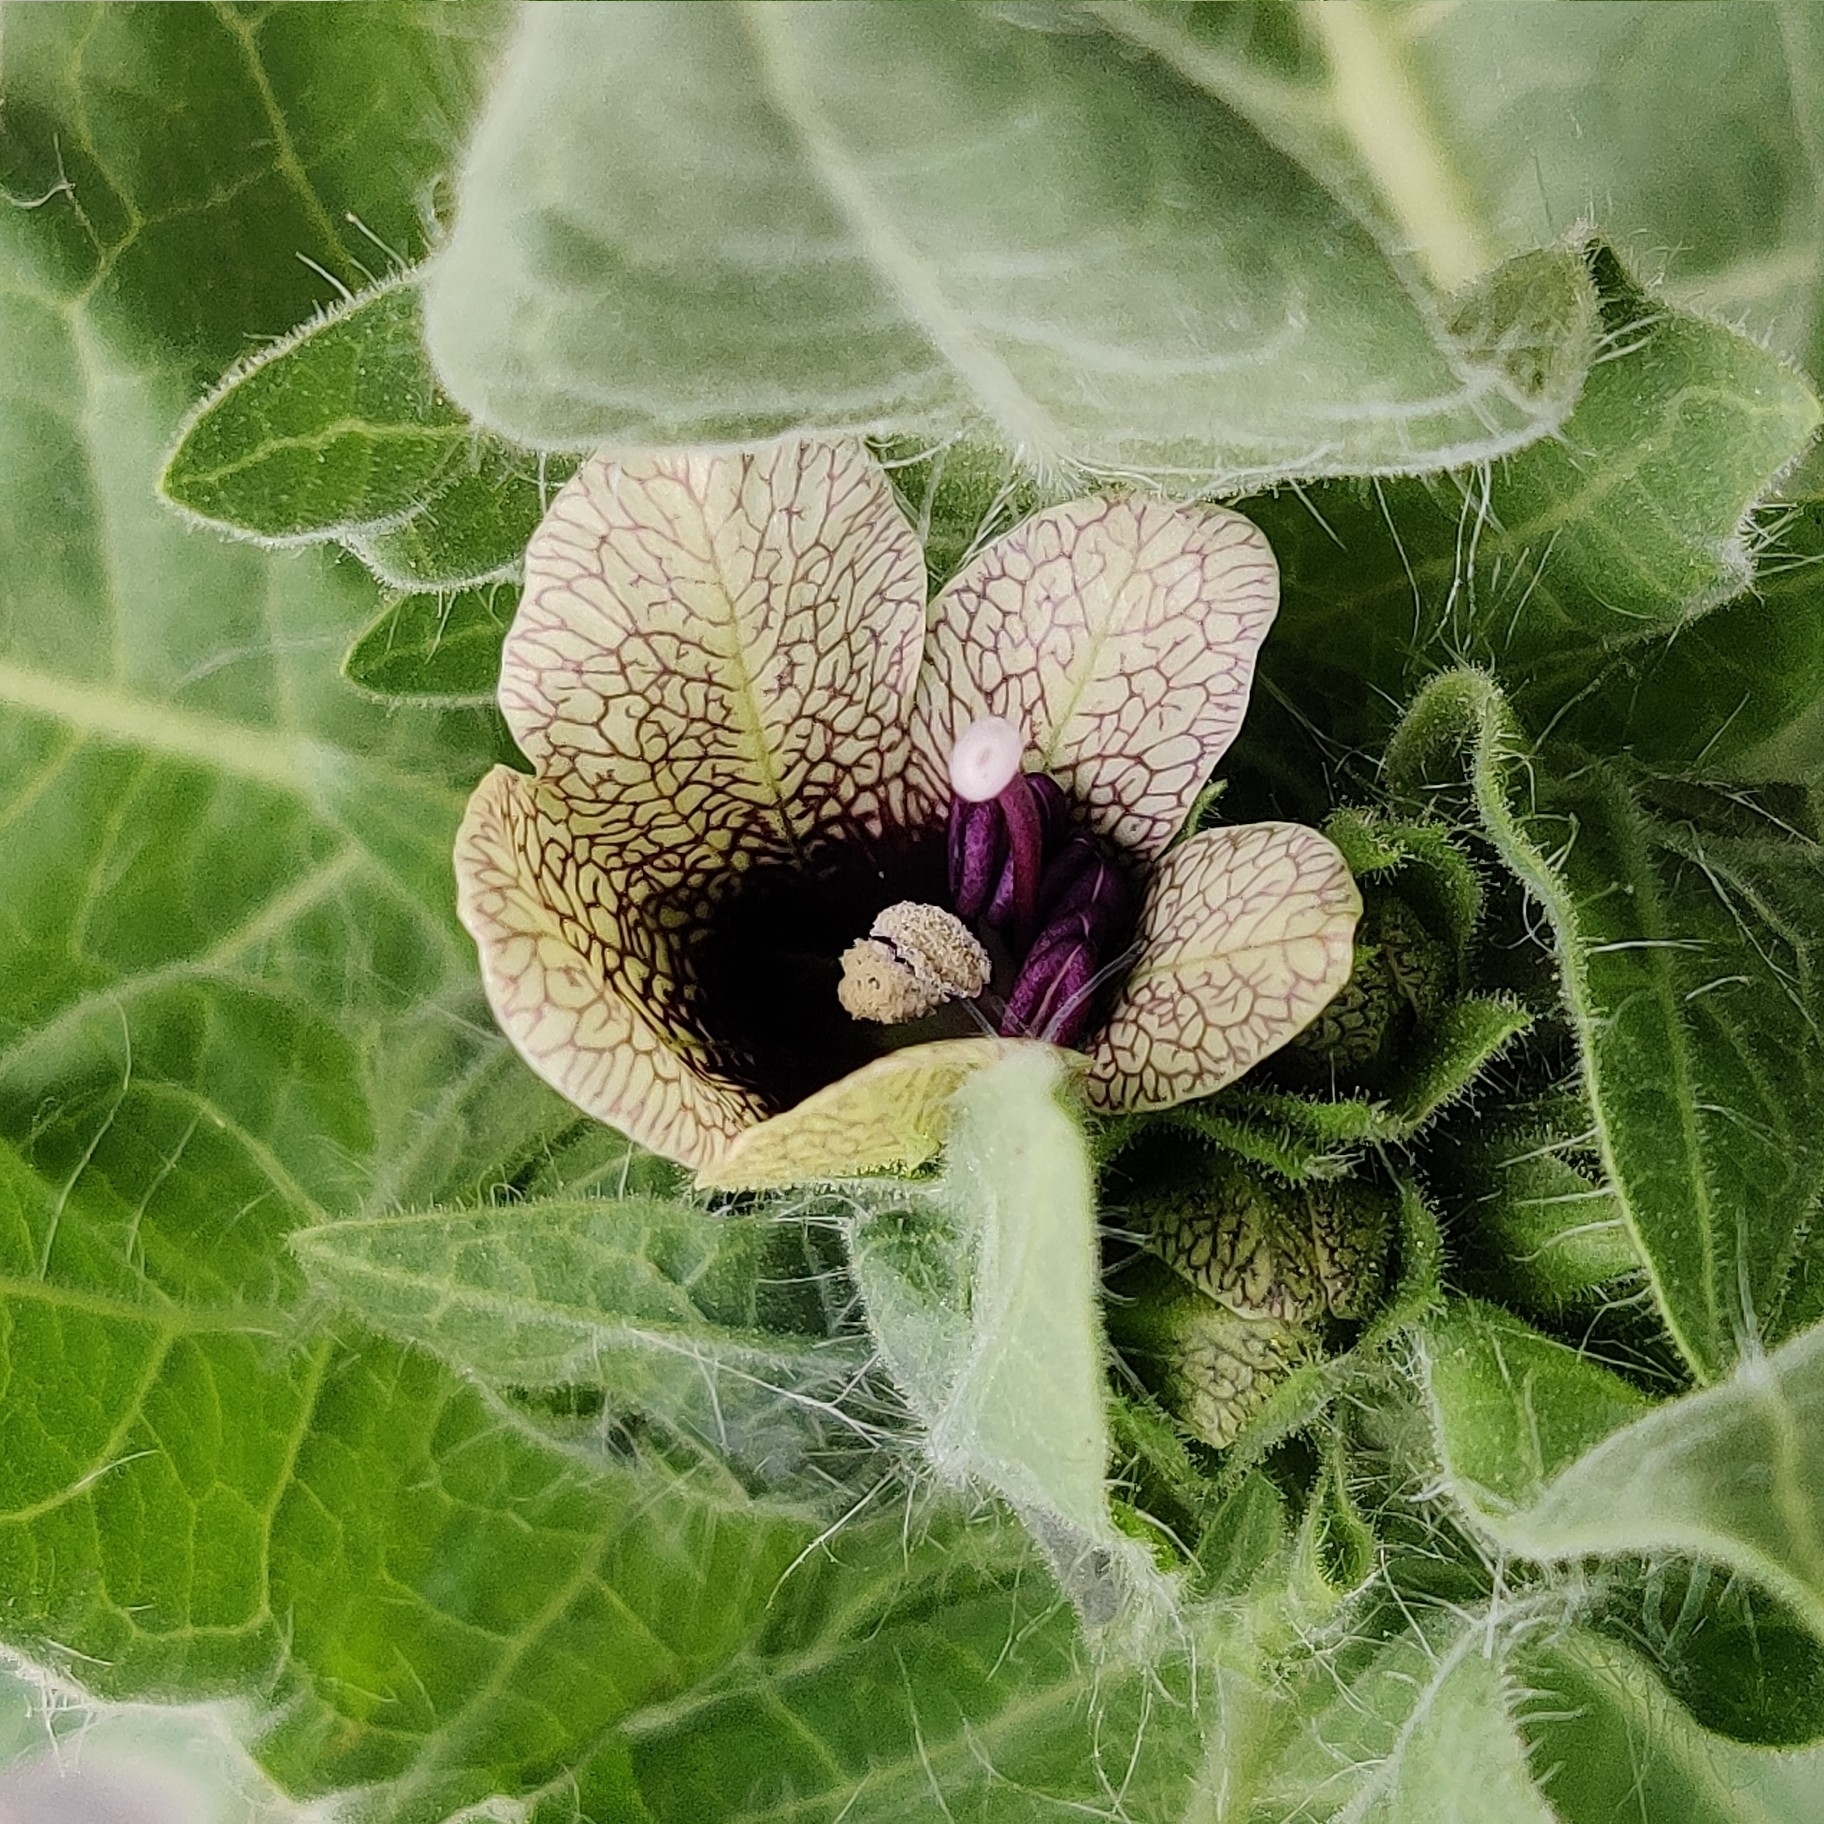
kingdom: Plantae
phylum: Tracheophyta
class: Magnoliopsida
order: Solanales
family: Solanaceae
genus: Hyoscyamus
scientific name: Hyoscyamus niger
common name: Henbane
